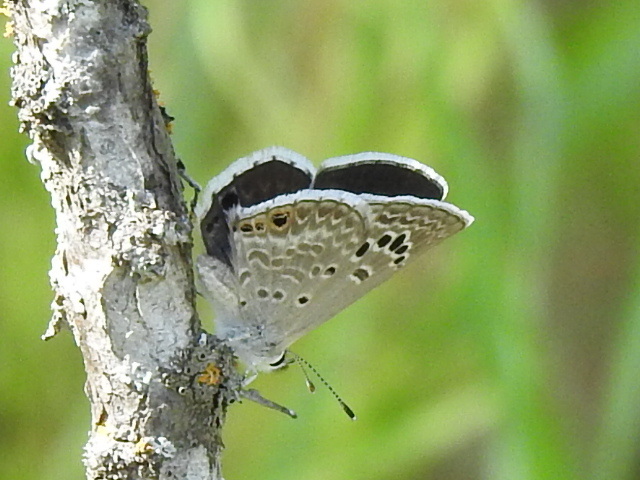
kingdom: Animalia
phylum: Arthropoda
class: Insecta
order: Lepidoptera
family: Lycaenidae
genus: Echinargus
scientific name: Echinargus isola
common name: Reakirt's blue
